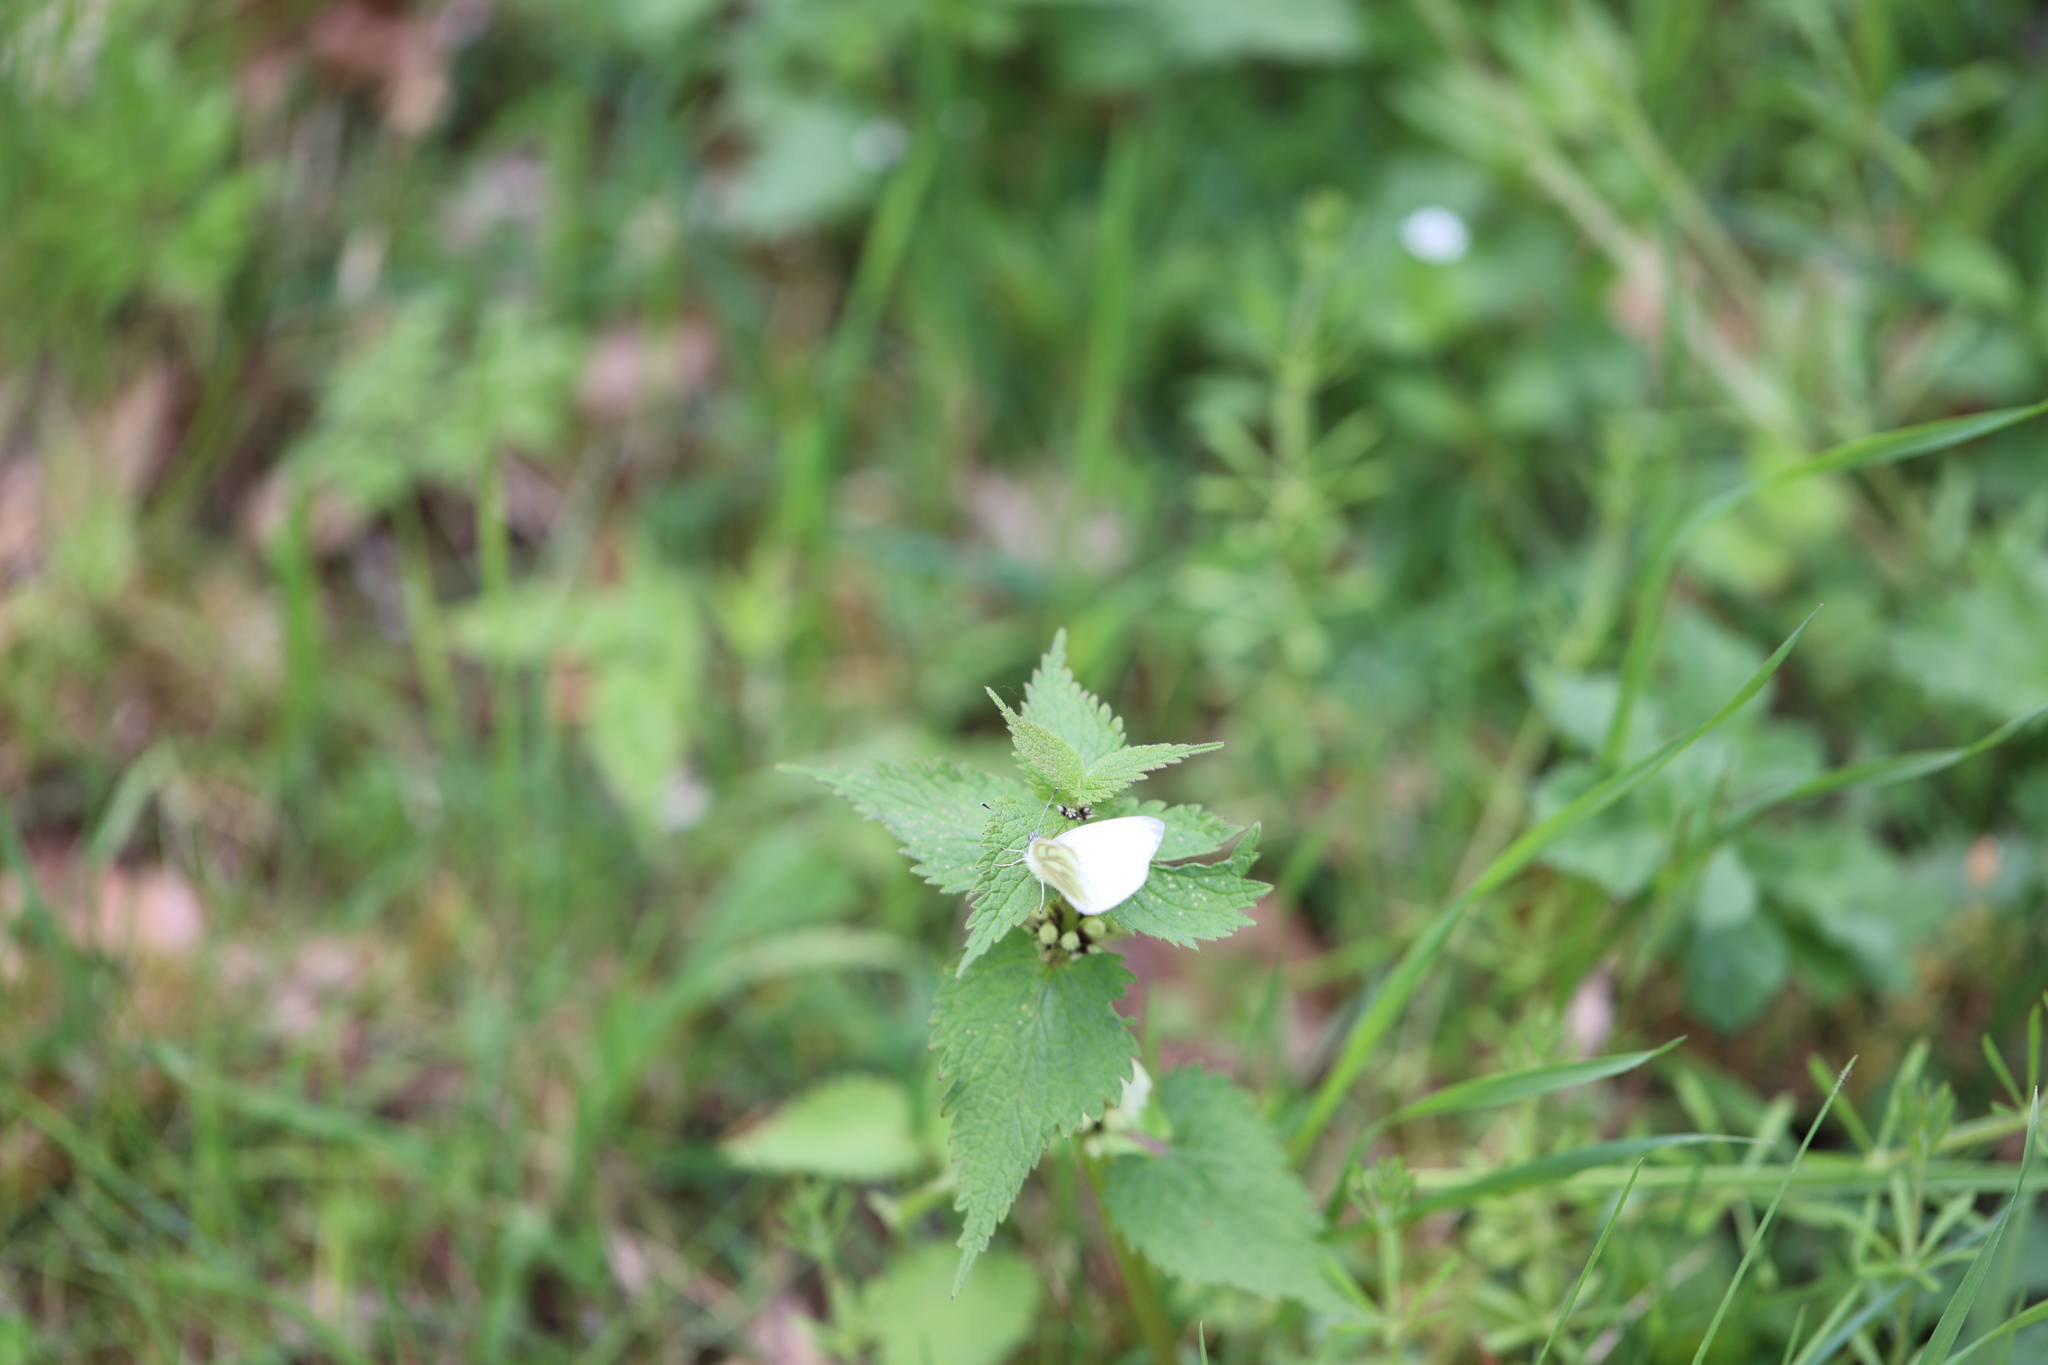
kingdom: Animalia
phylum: Arthropoda
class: Insecta
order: Lepidoptera
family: Pieridae
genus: Pieris
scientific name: Pieris napi
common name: Green-veined white
